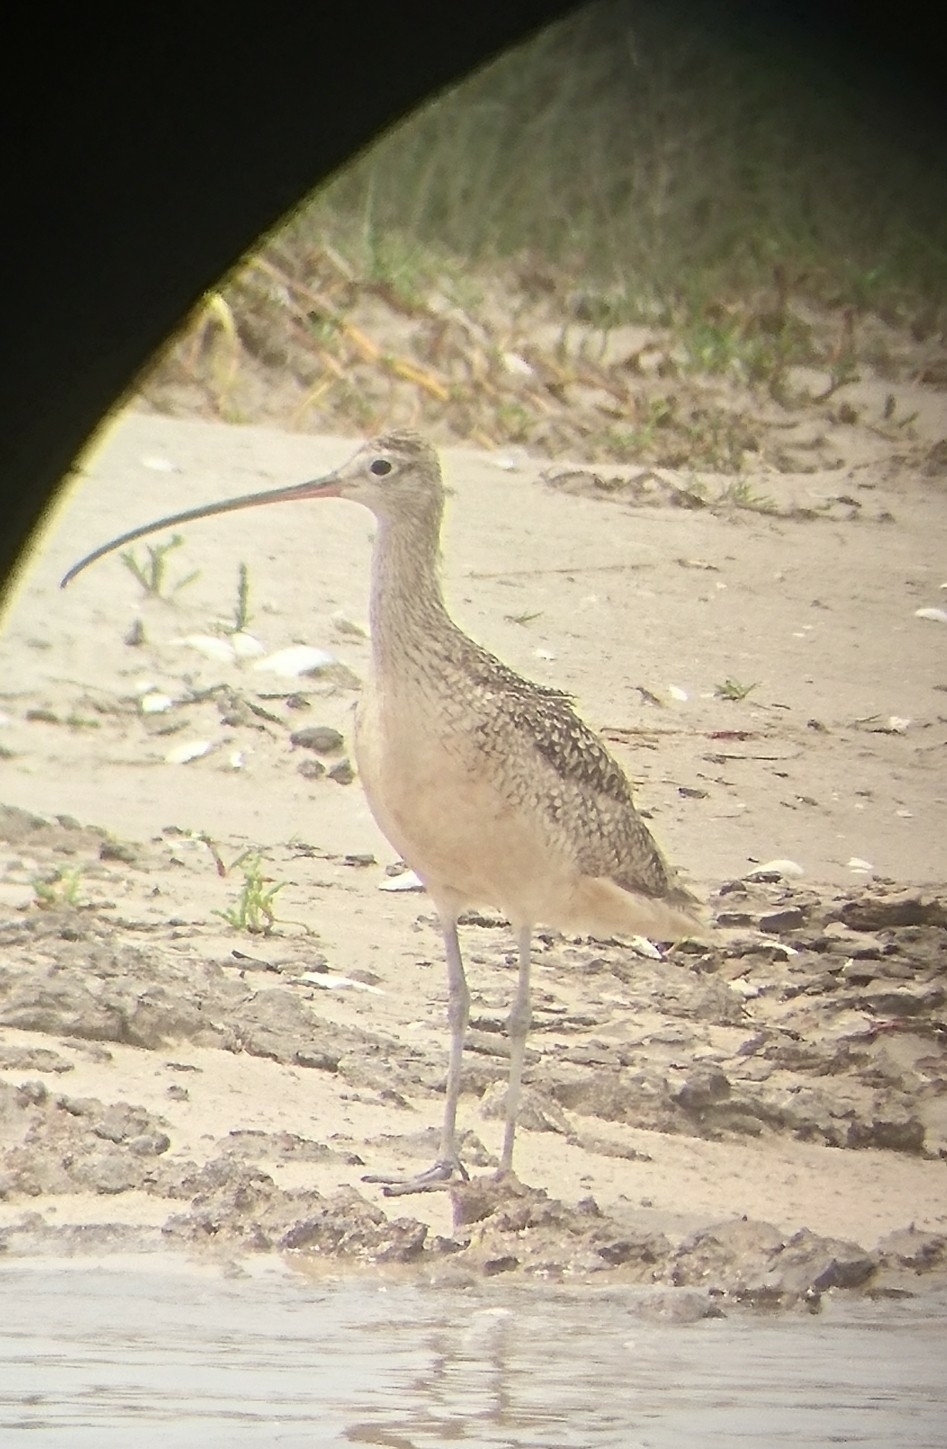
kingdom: Animalia
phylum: Chordata
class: Aves
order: Charadriiformes
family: Scolopacidae
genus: Numenius
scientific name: Numenius americanus
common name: Long-billed curlew
